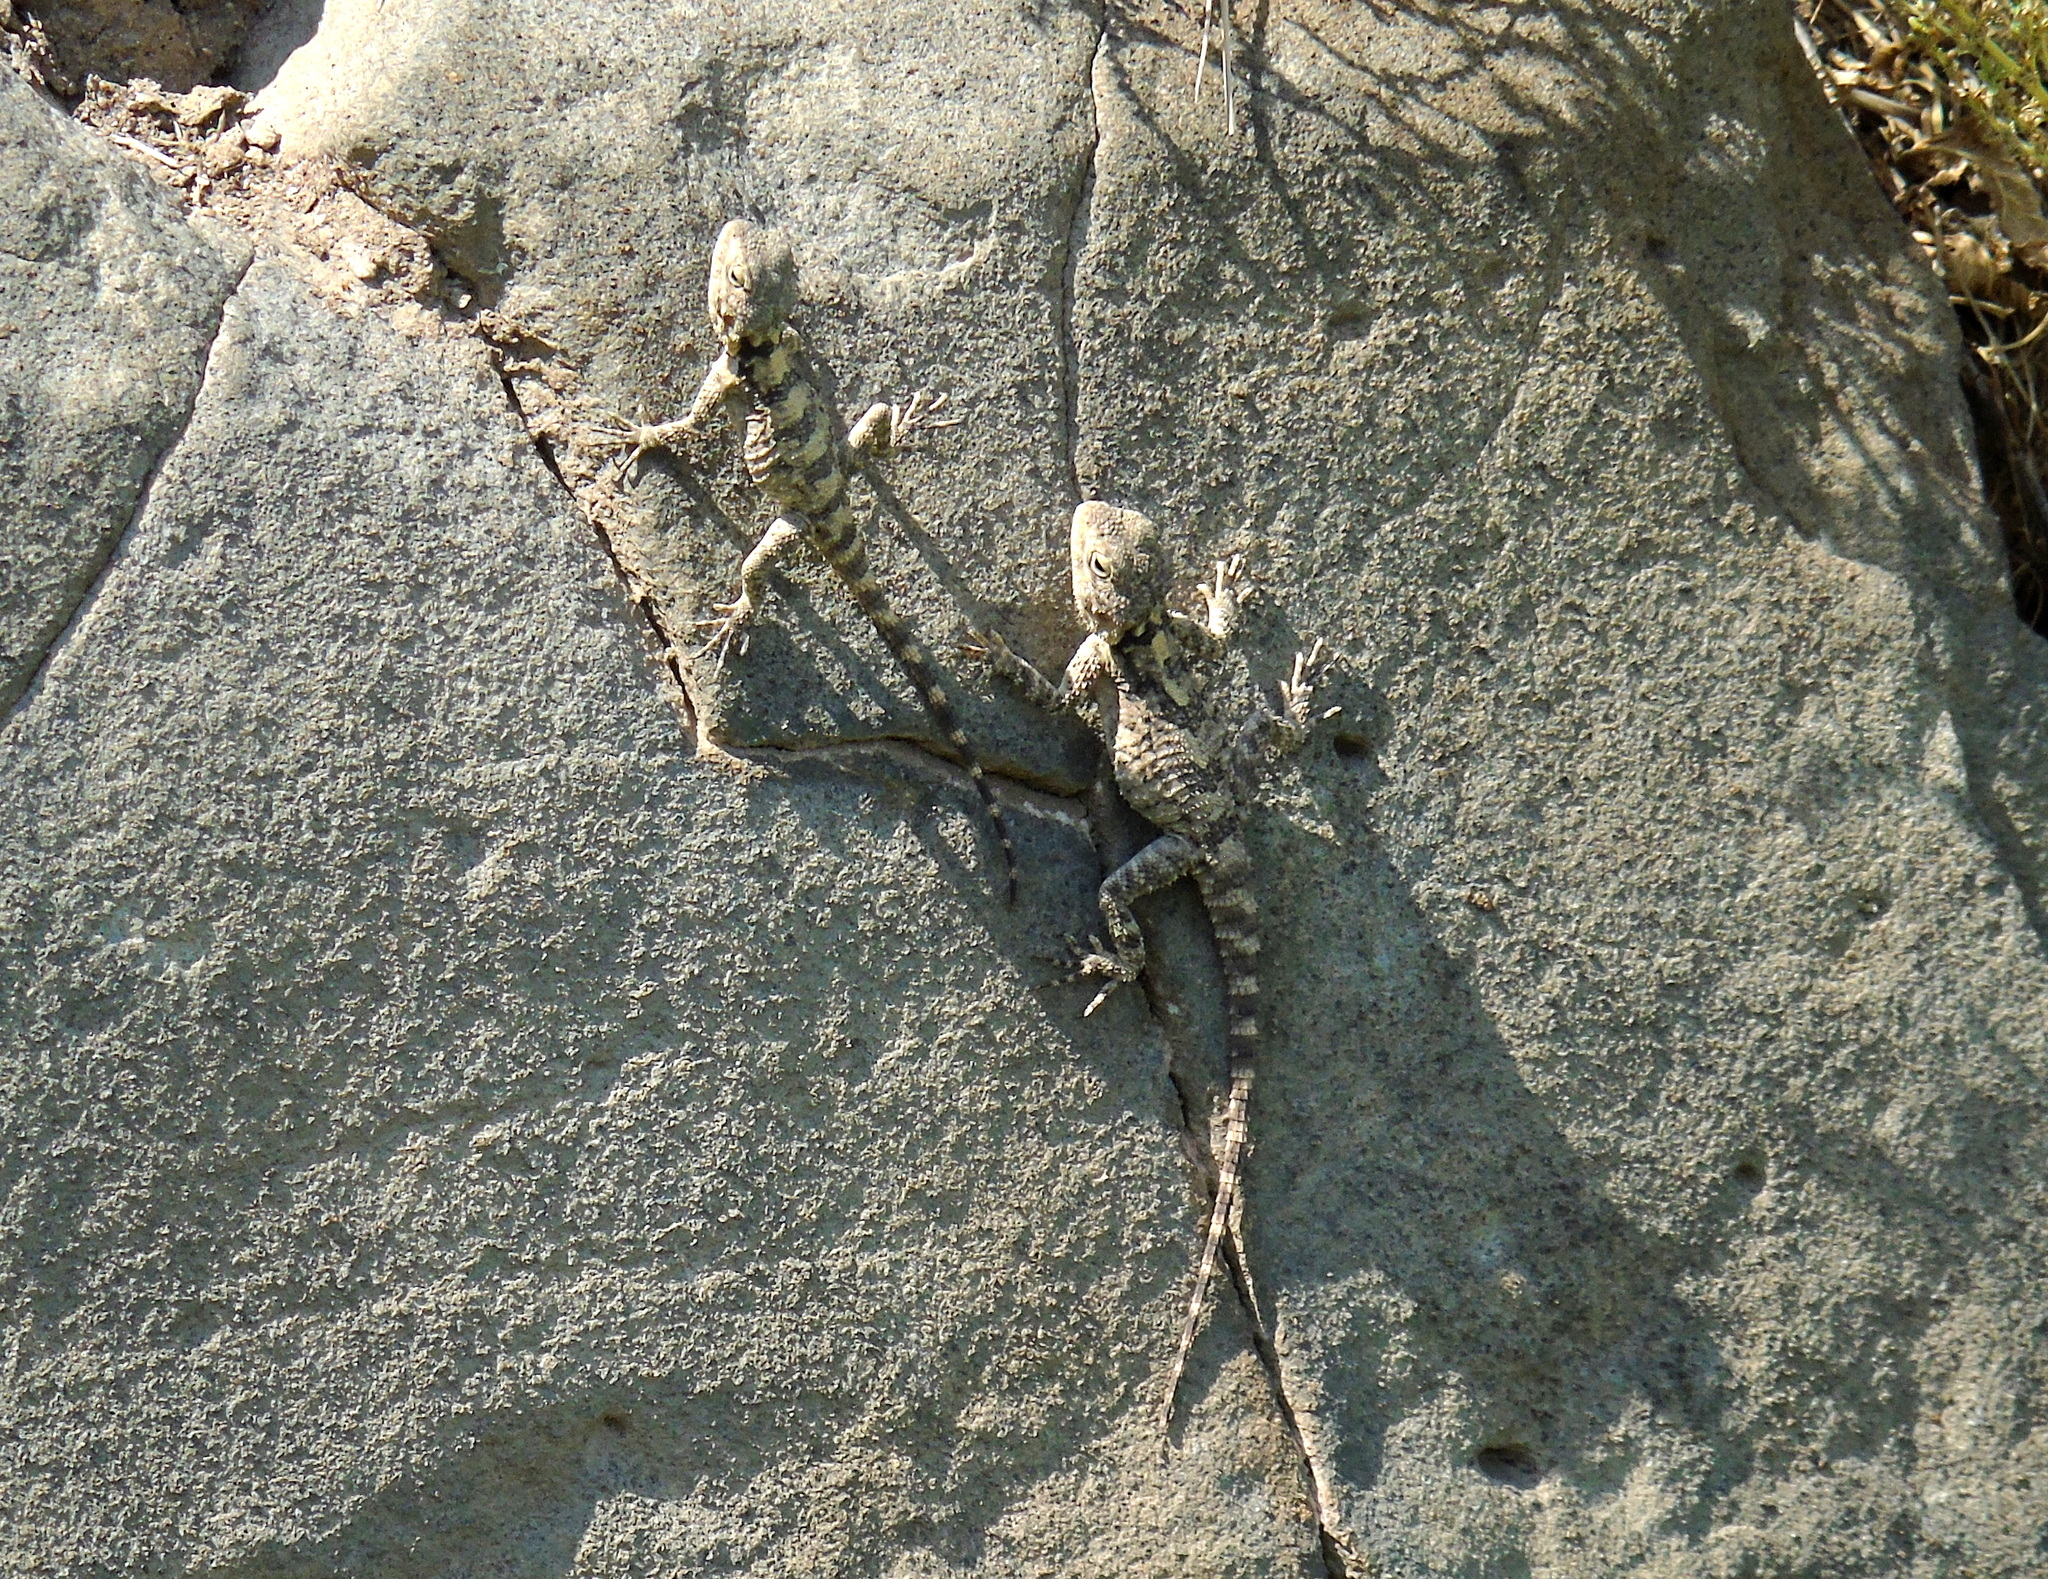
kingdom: Animalia
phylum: Chordata
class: Squamata
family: Agamidae
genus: Stellagama
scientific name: Stellagama stellio
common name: Starred agama
